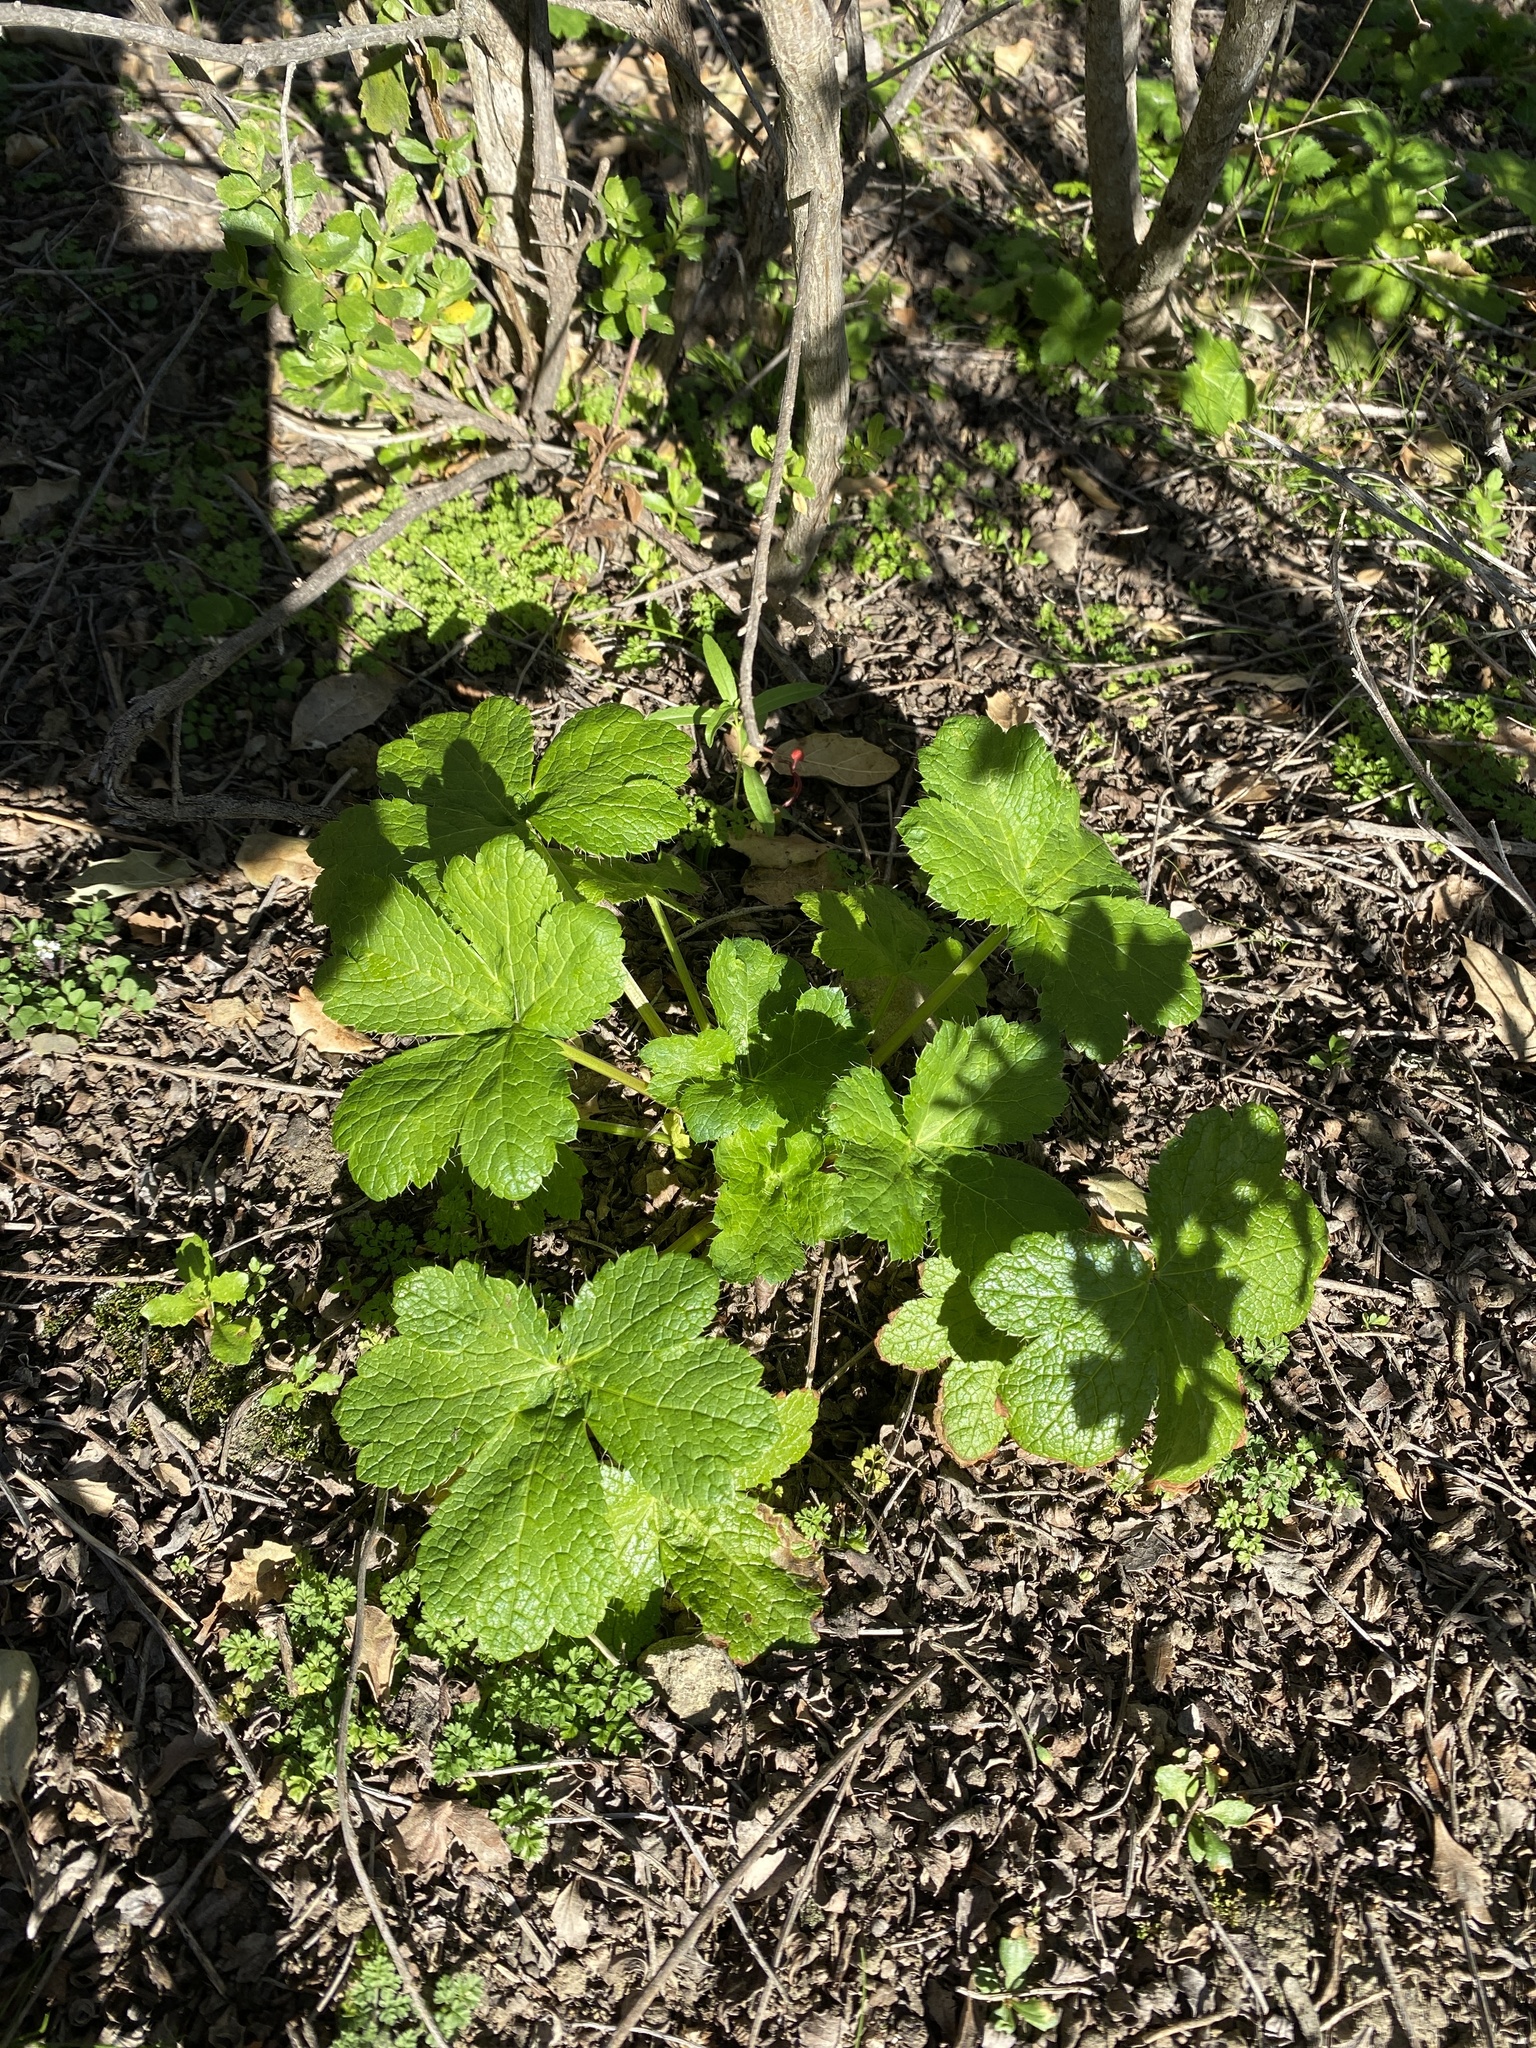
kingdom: Plantae
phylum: Tracheophyta
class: Magnoliopsida
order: Apiales
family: Apiaceae
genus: Sanicula
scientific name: Sanicula crassicaulis
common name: Western snakeroot
